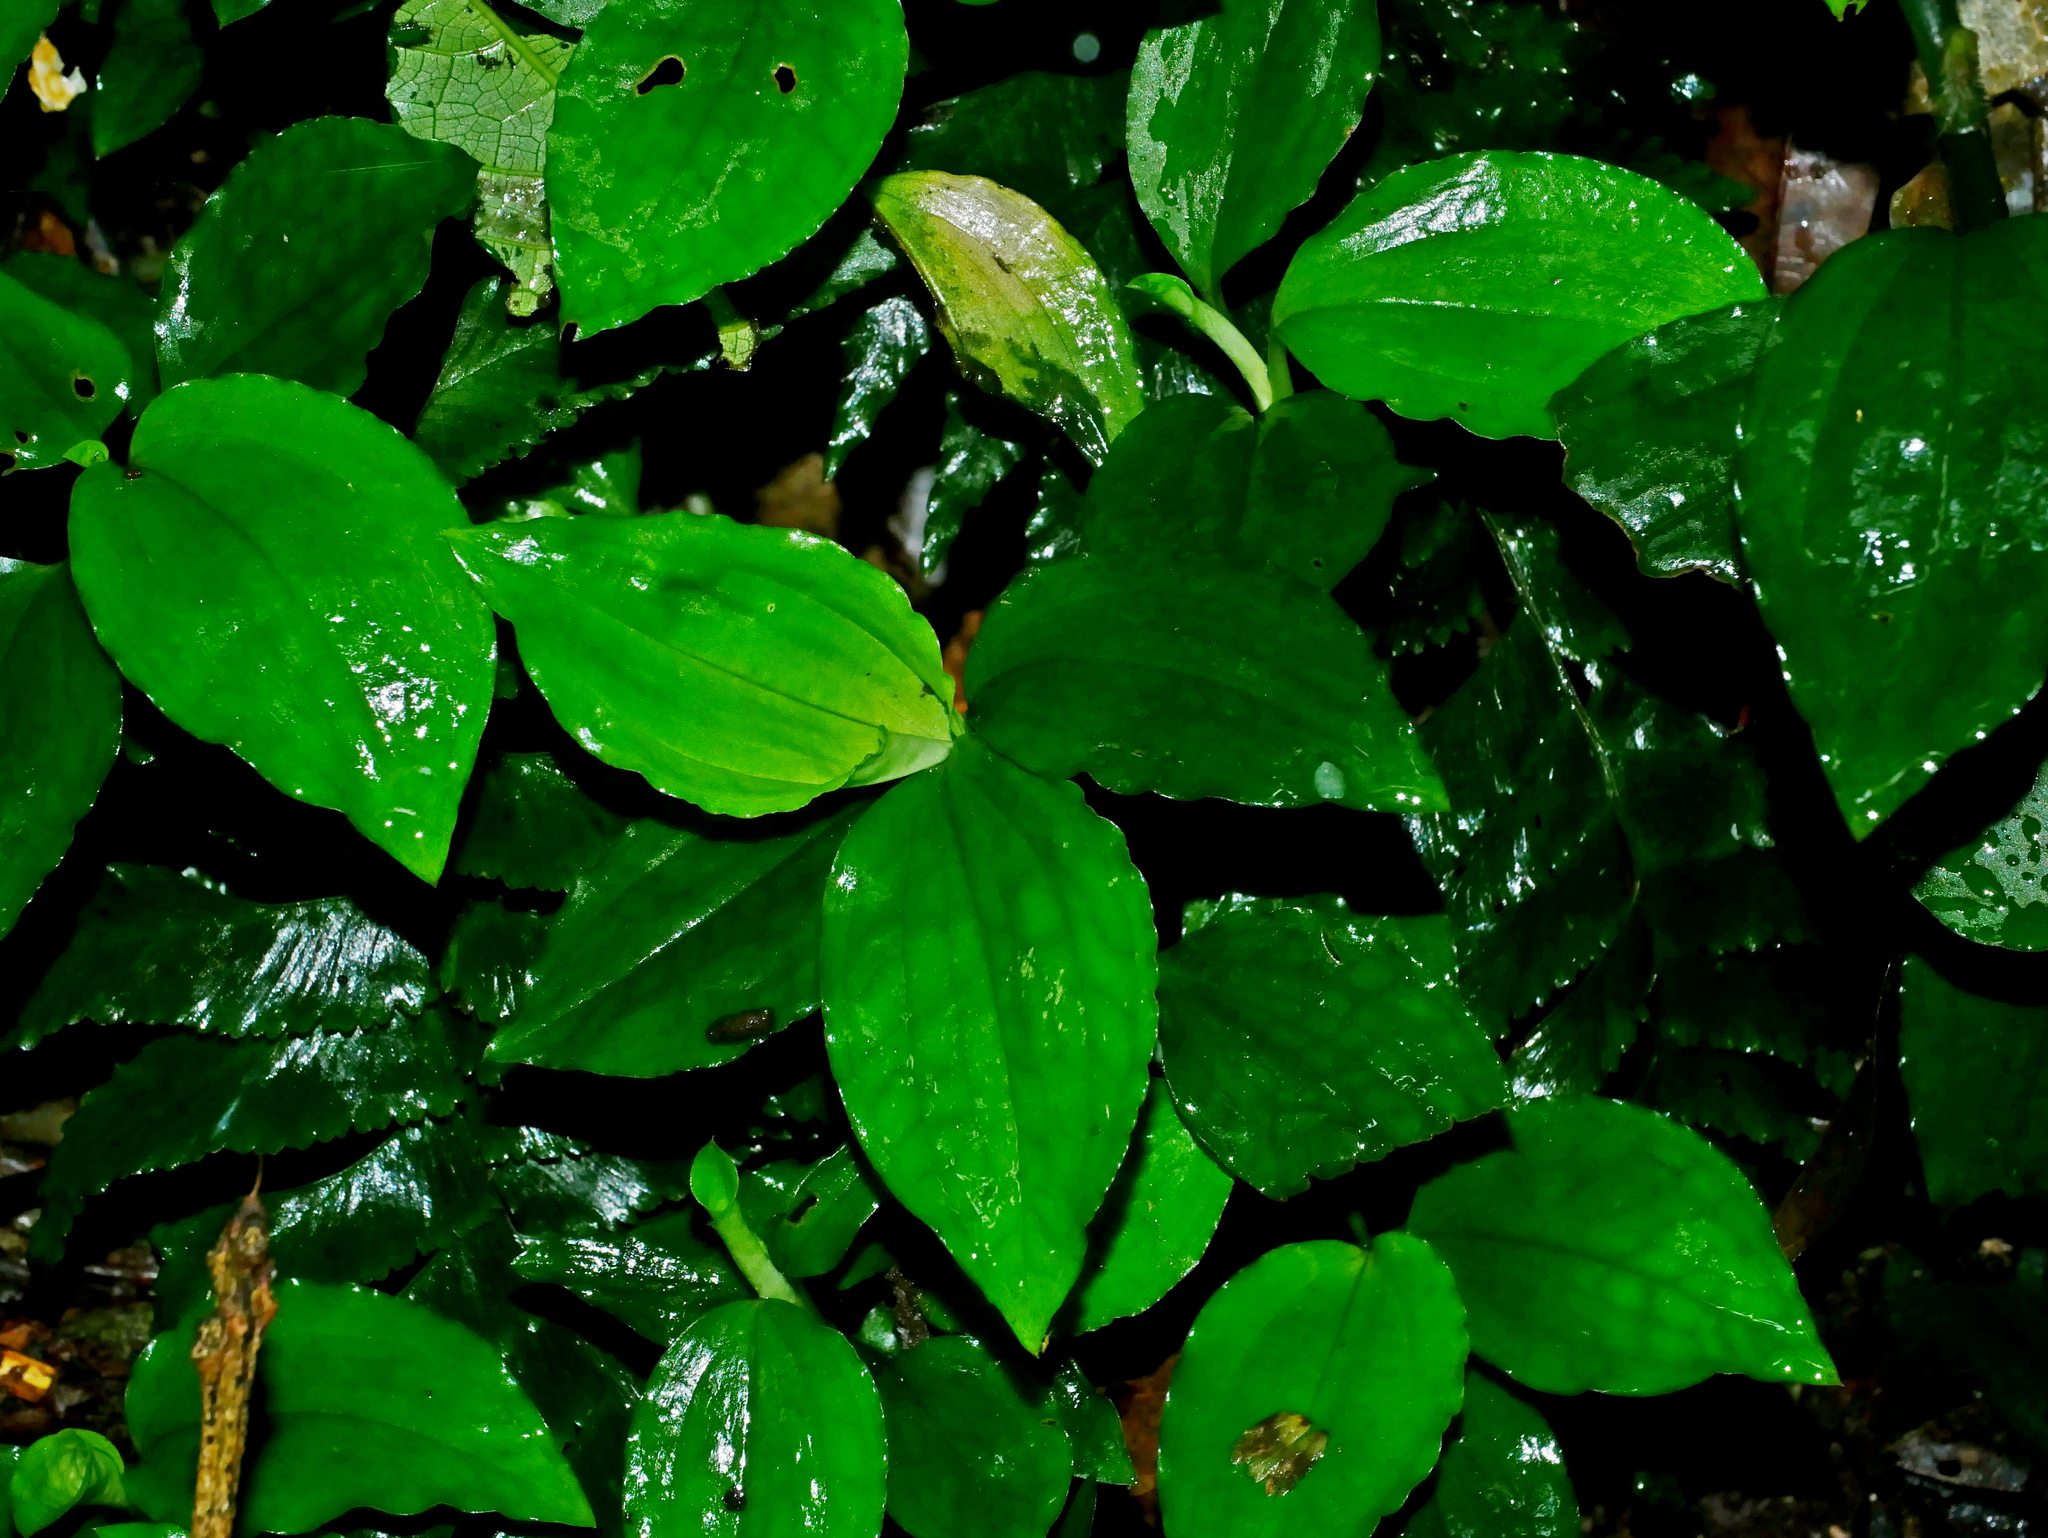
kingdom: Plantae
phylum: Tracheophyta
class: Liliopsida
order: Asparagales
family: Orchidaceae
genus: Odontochilus
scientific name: Odontochilus tashiroi
